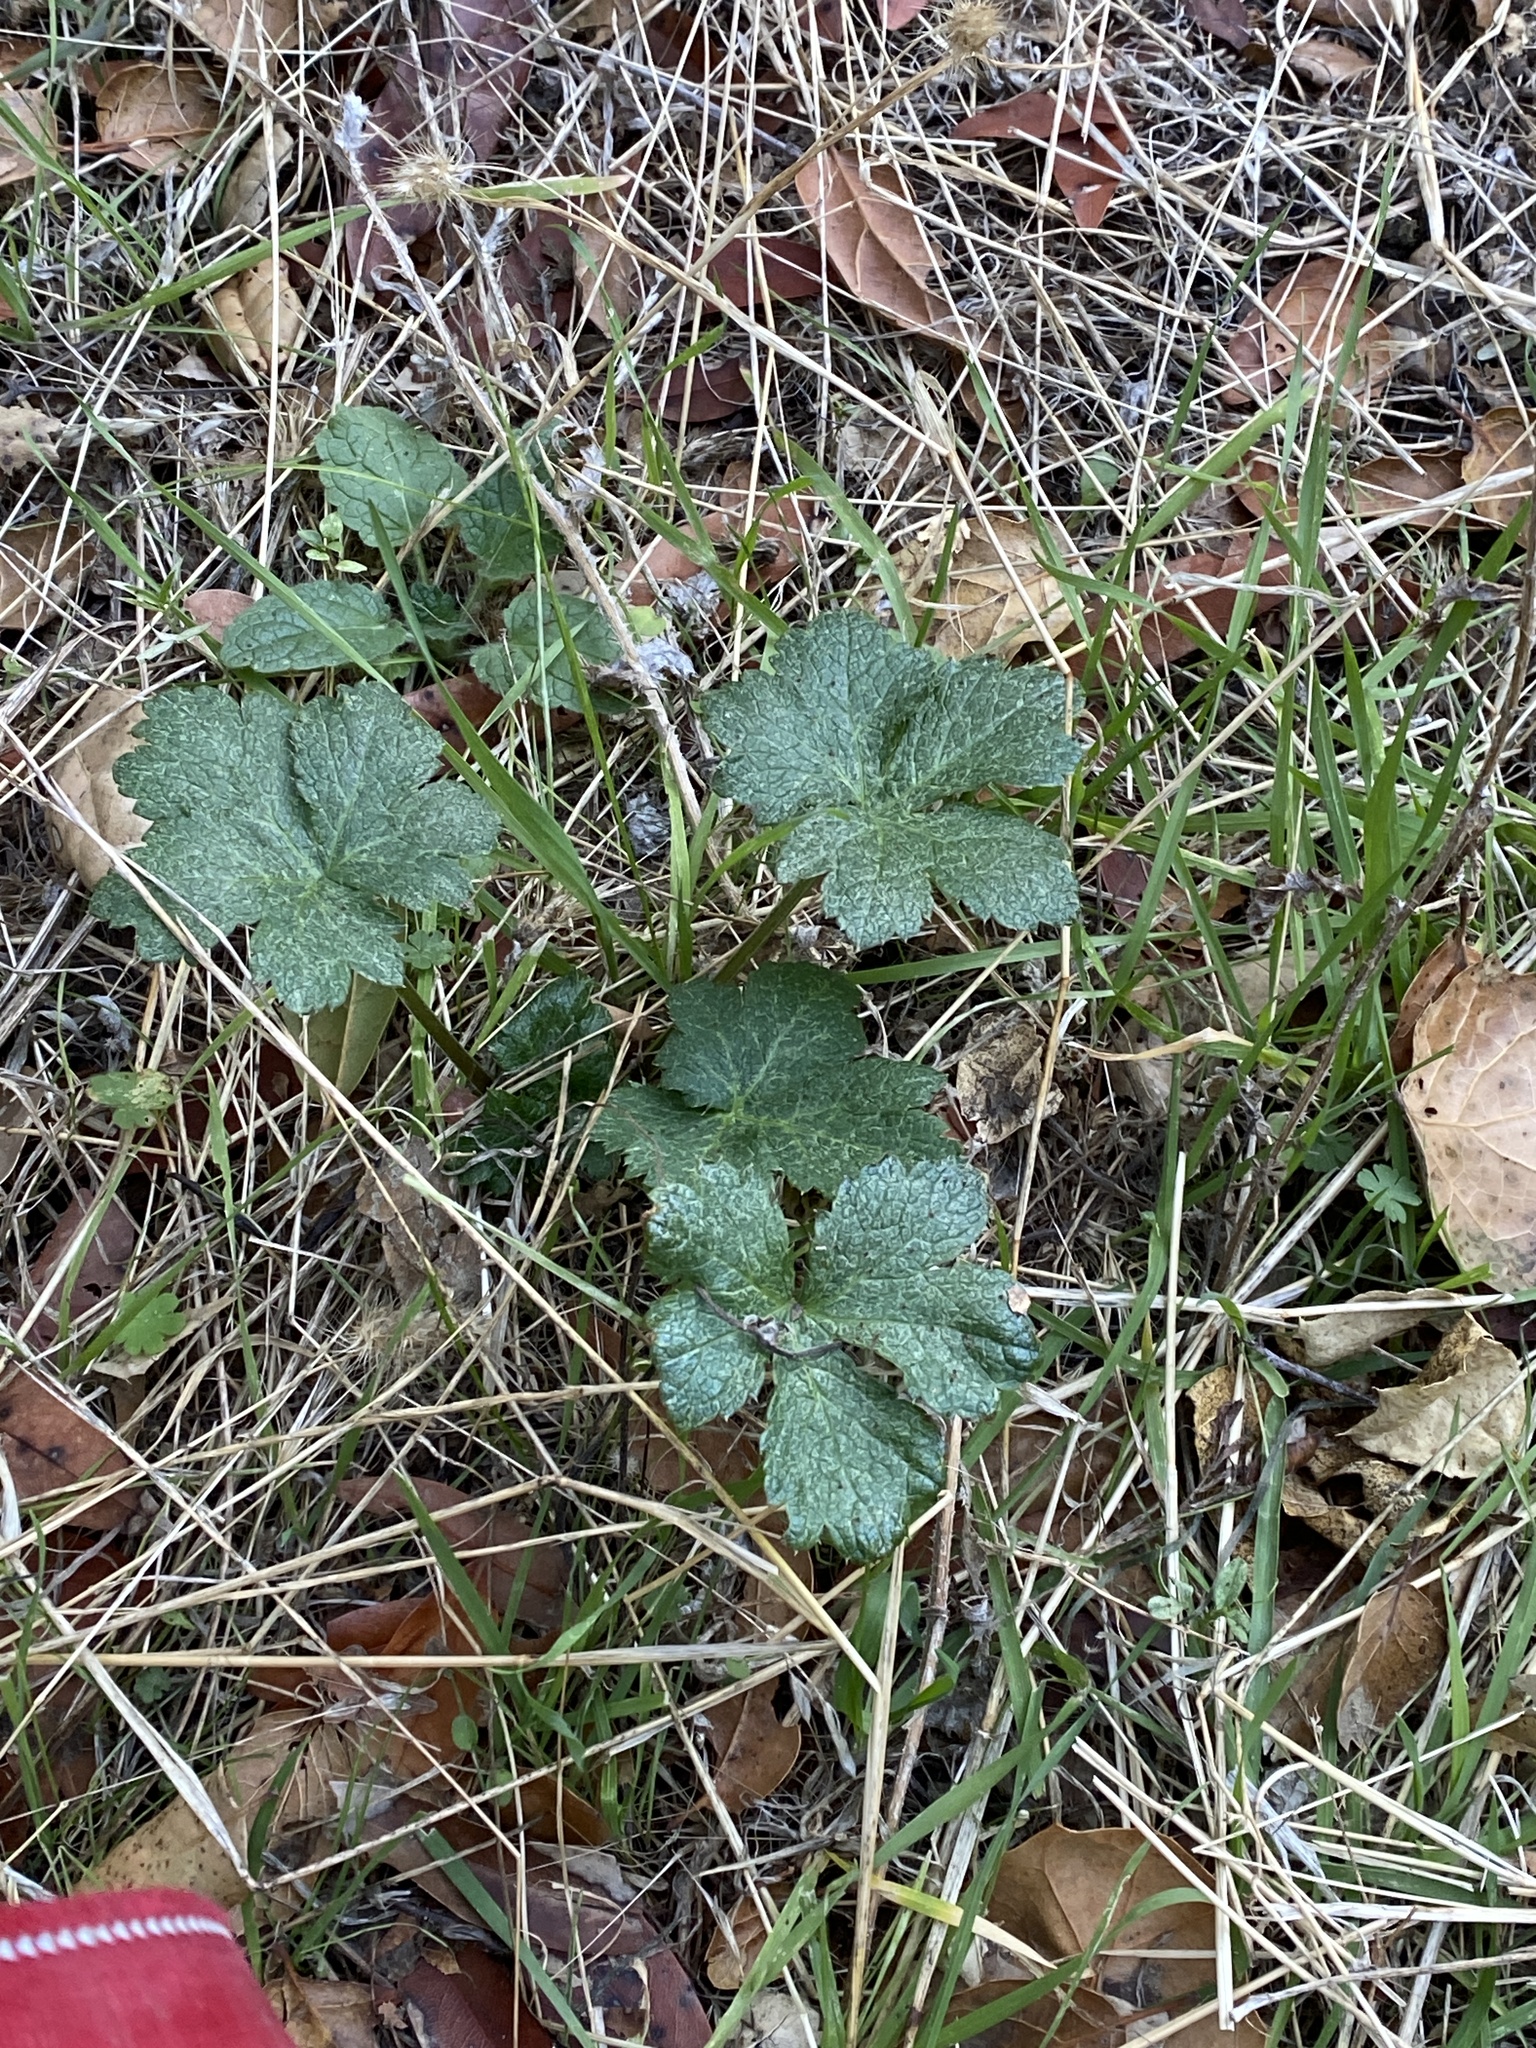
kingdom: Plantae
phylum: Tracheophyta
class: Magnoliopsida
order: Apiales
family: Apiaceae
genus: Sanicula
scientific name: Sanicula crassicaulis
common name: Western snakeroot
